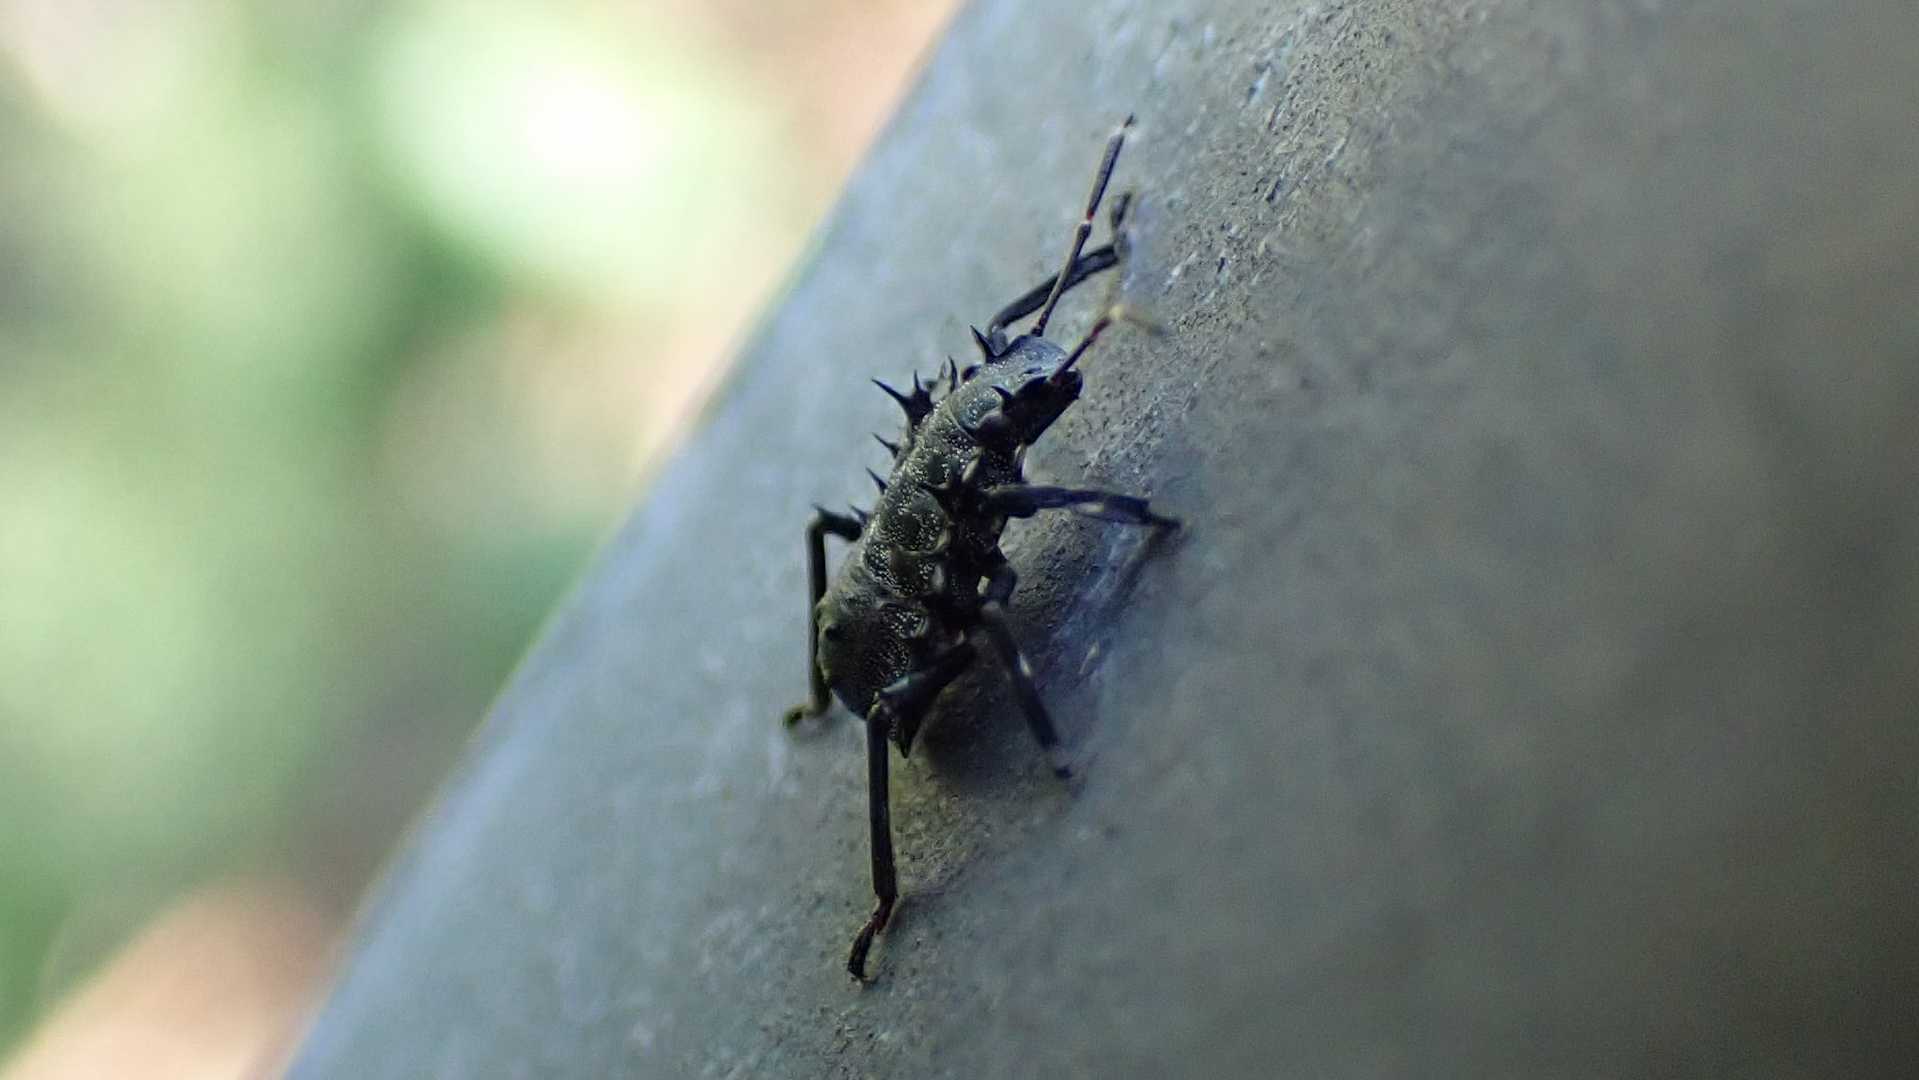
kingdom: Animalia
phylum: Arthropoda
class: Insecta
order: Hemiptera
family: Pentatomidae
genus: Halyomorpha
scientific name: Halyomorpha halys
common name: Brown marmorated stink bug
